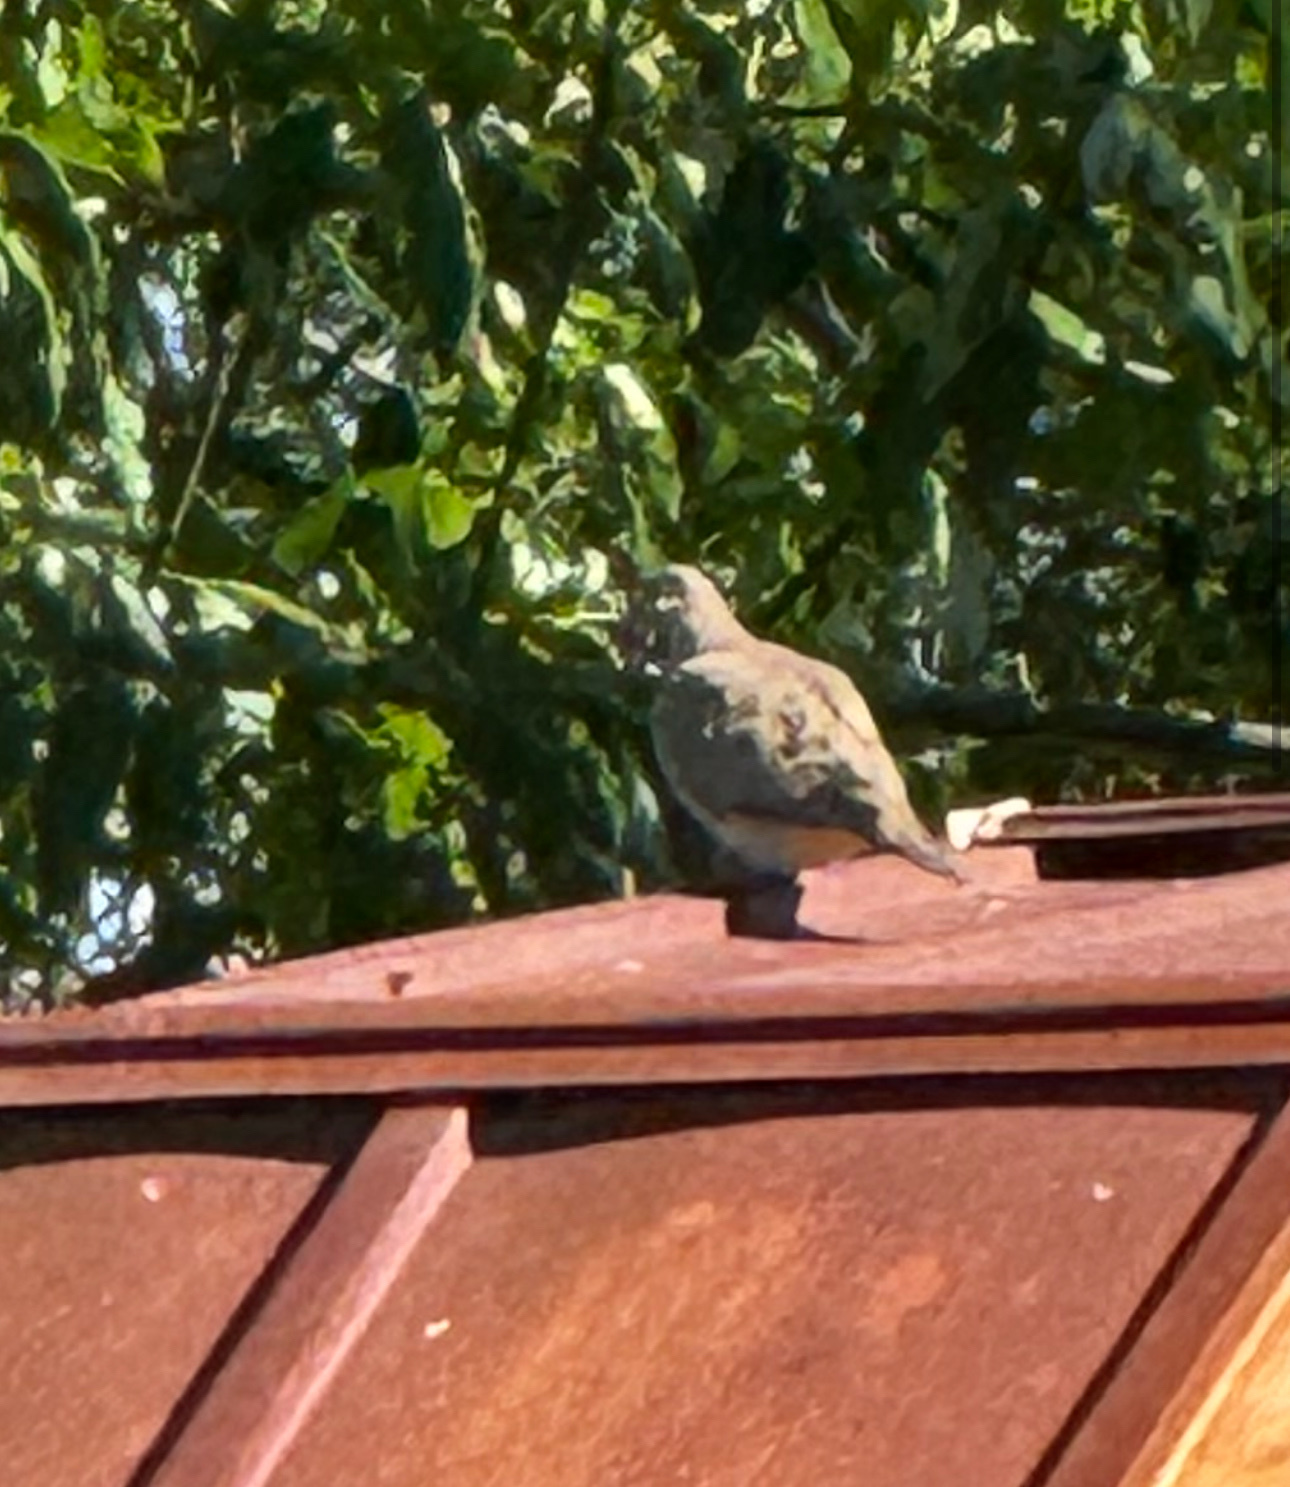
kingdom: Animalia
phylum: Chordata
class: Aves
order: Columbiformes
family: Columbidae
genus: Zenaida
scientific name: Zenaida macroura
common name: Mourning dove
